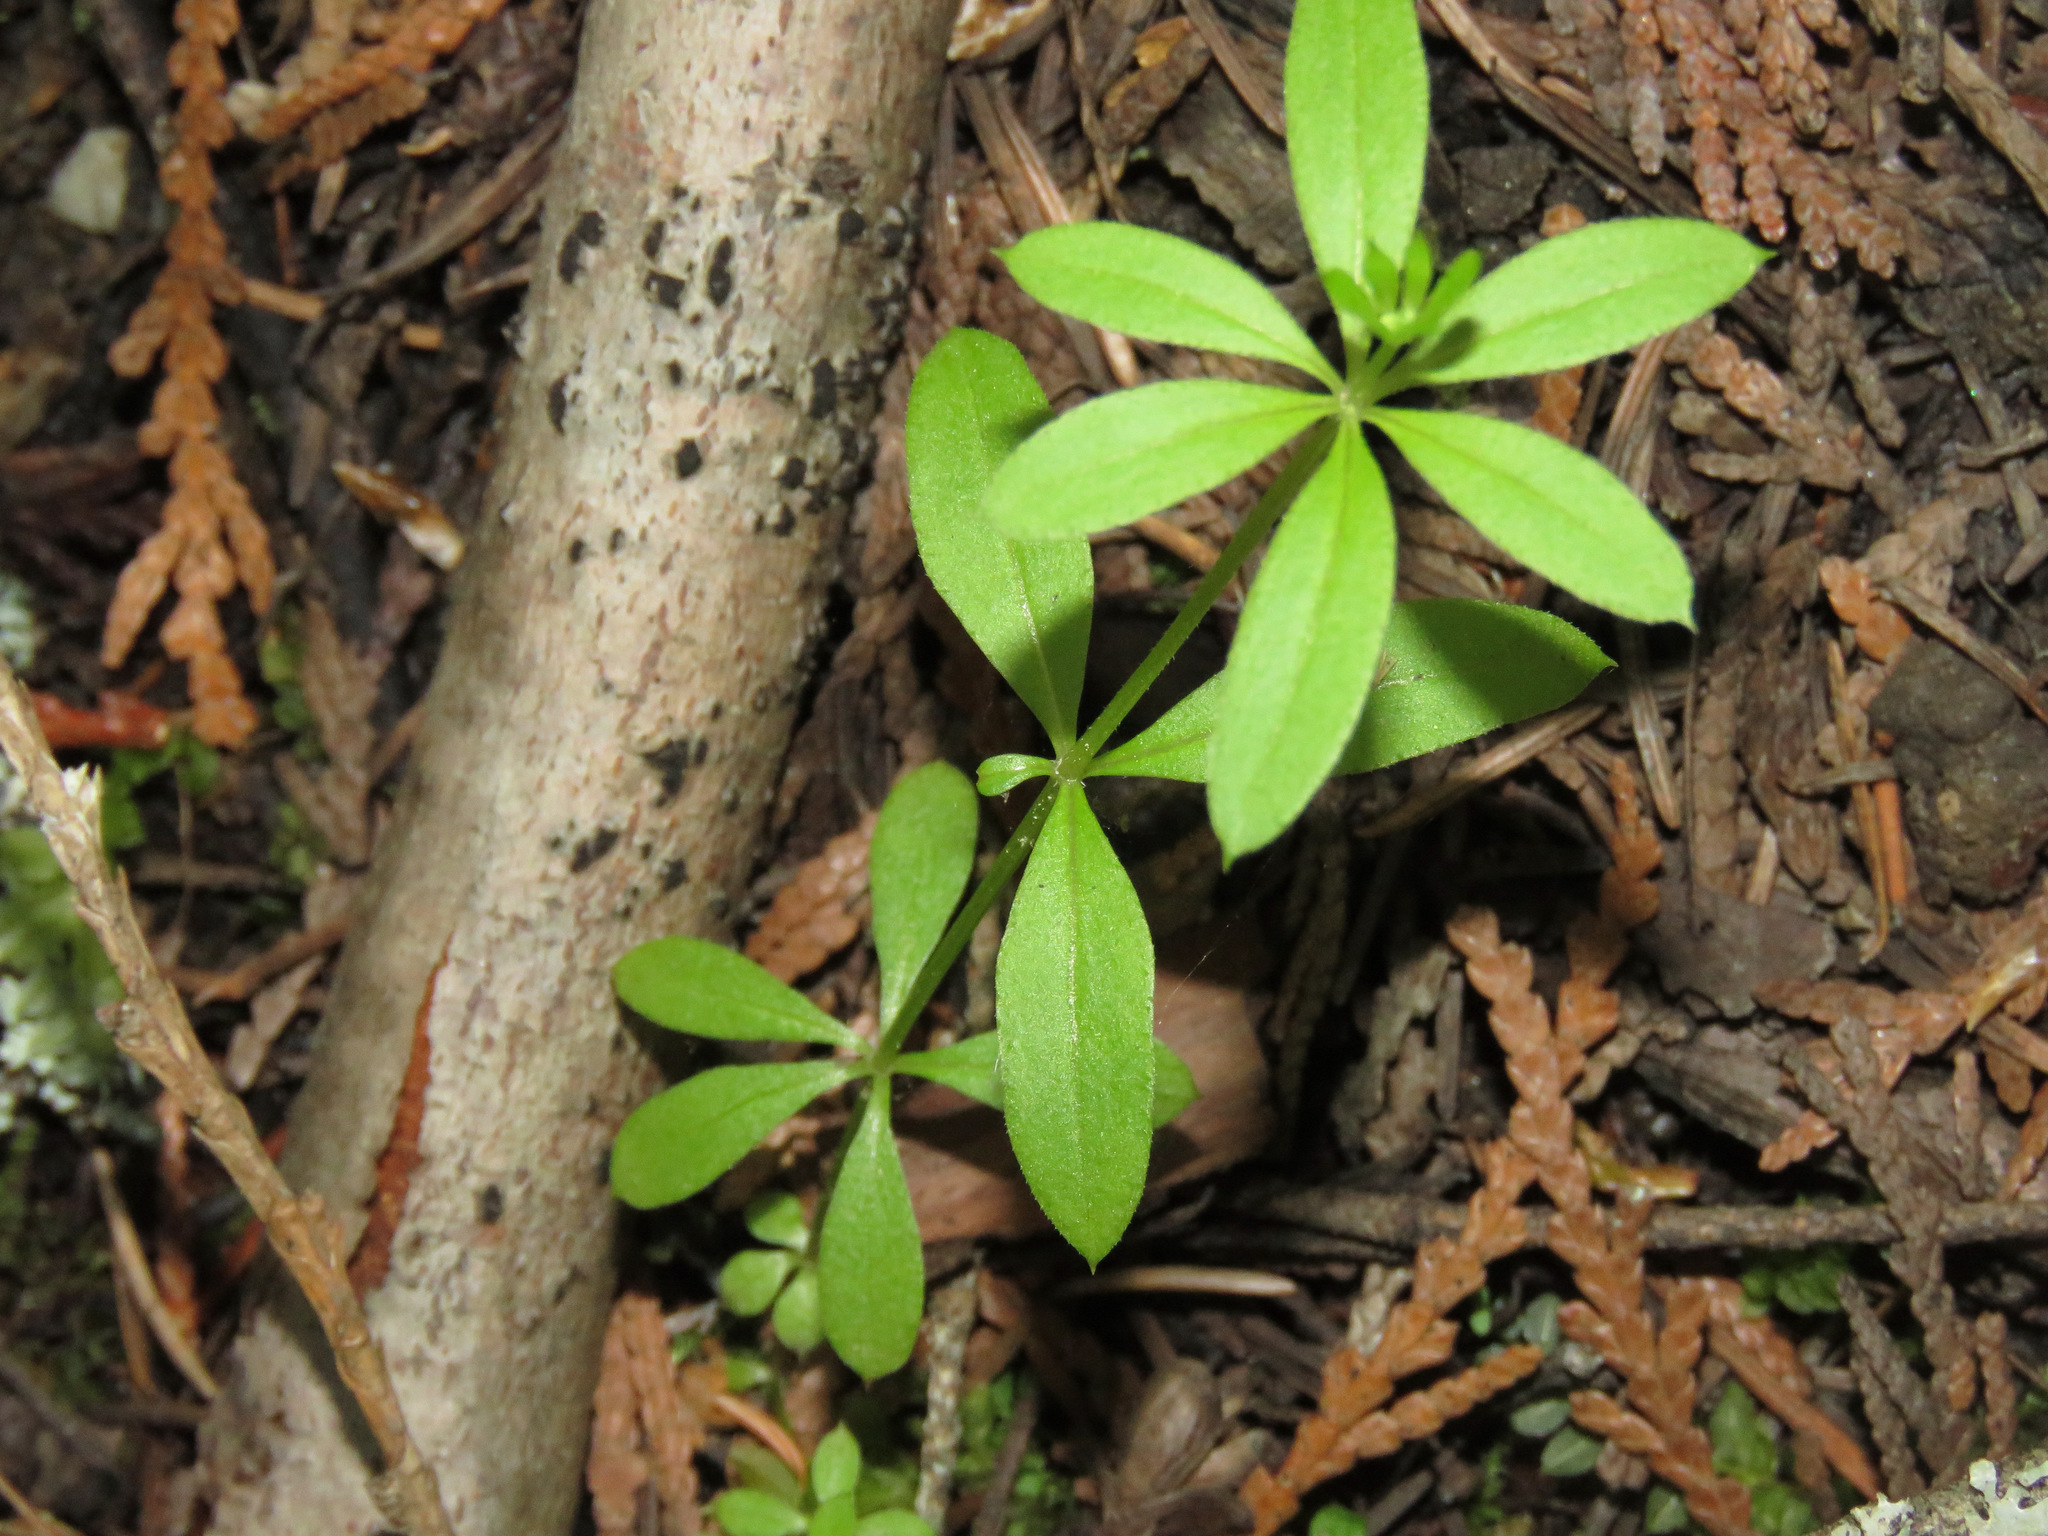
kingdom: Plantae
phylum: Tracheophyta
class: Magnoliopsida
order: Gentianales
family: Rubiaceae
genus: Galium
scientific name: Galium triflorum
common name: Fragrant bedstraw
